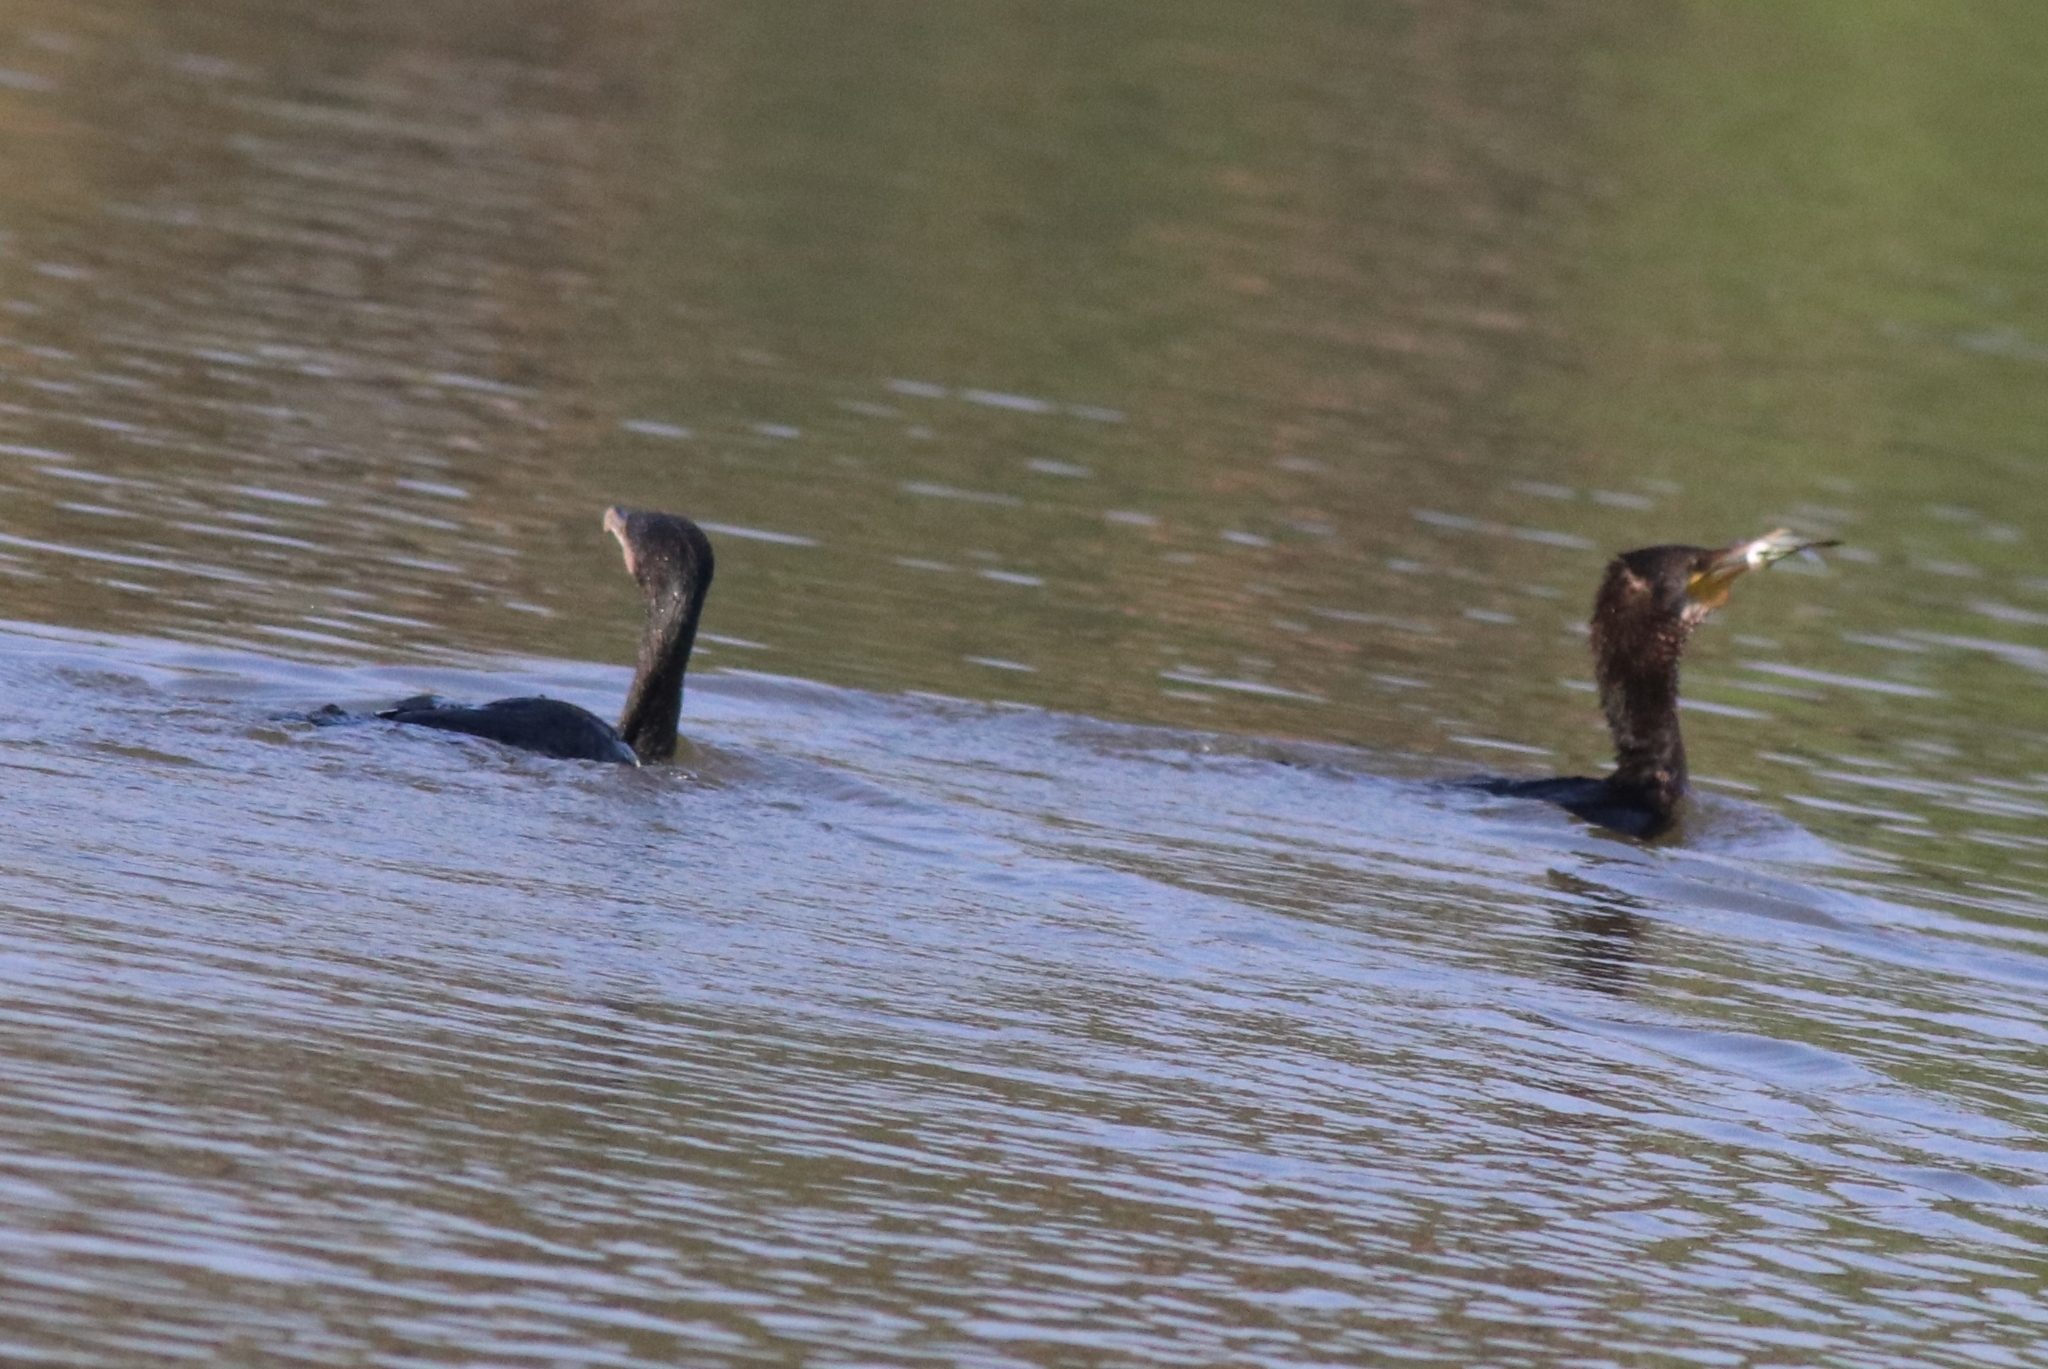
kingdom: Animalia
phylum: Chordata
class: Aves
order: Suliformes
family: Phalacrocoracidae
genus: Microcarbo
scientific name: Microcarbo niger
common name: Little cormorant
